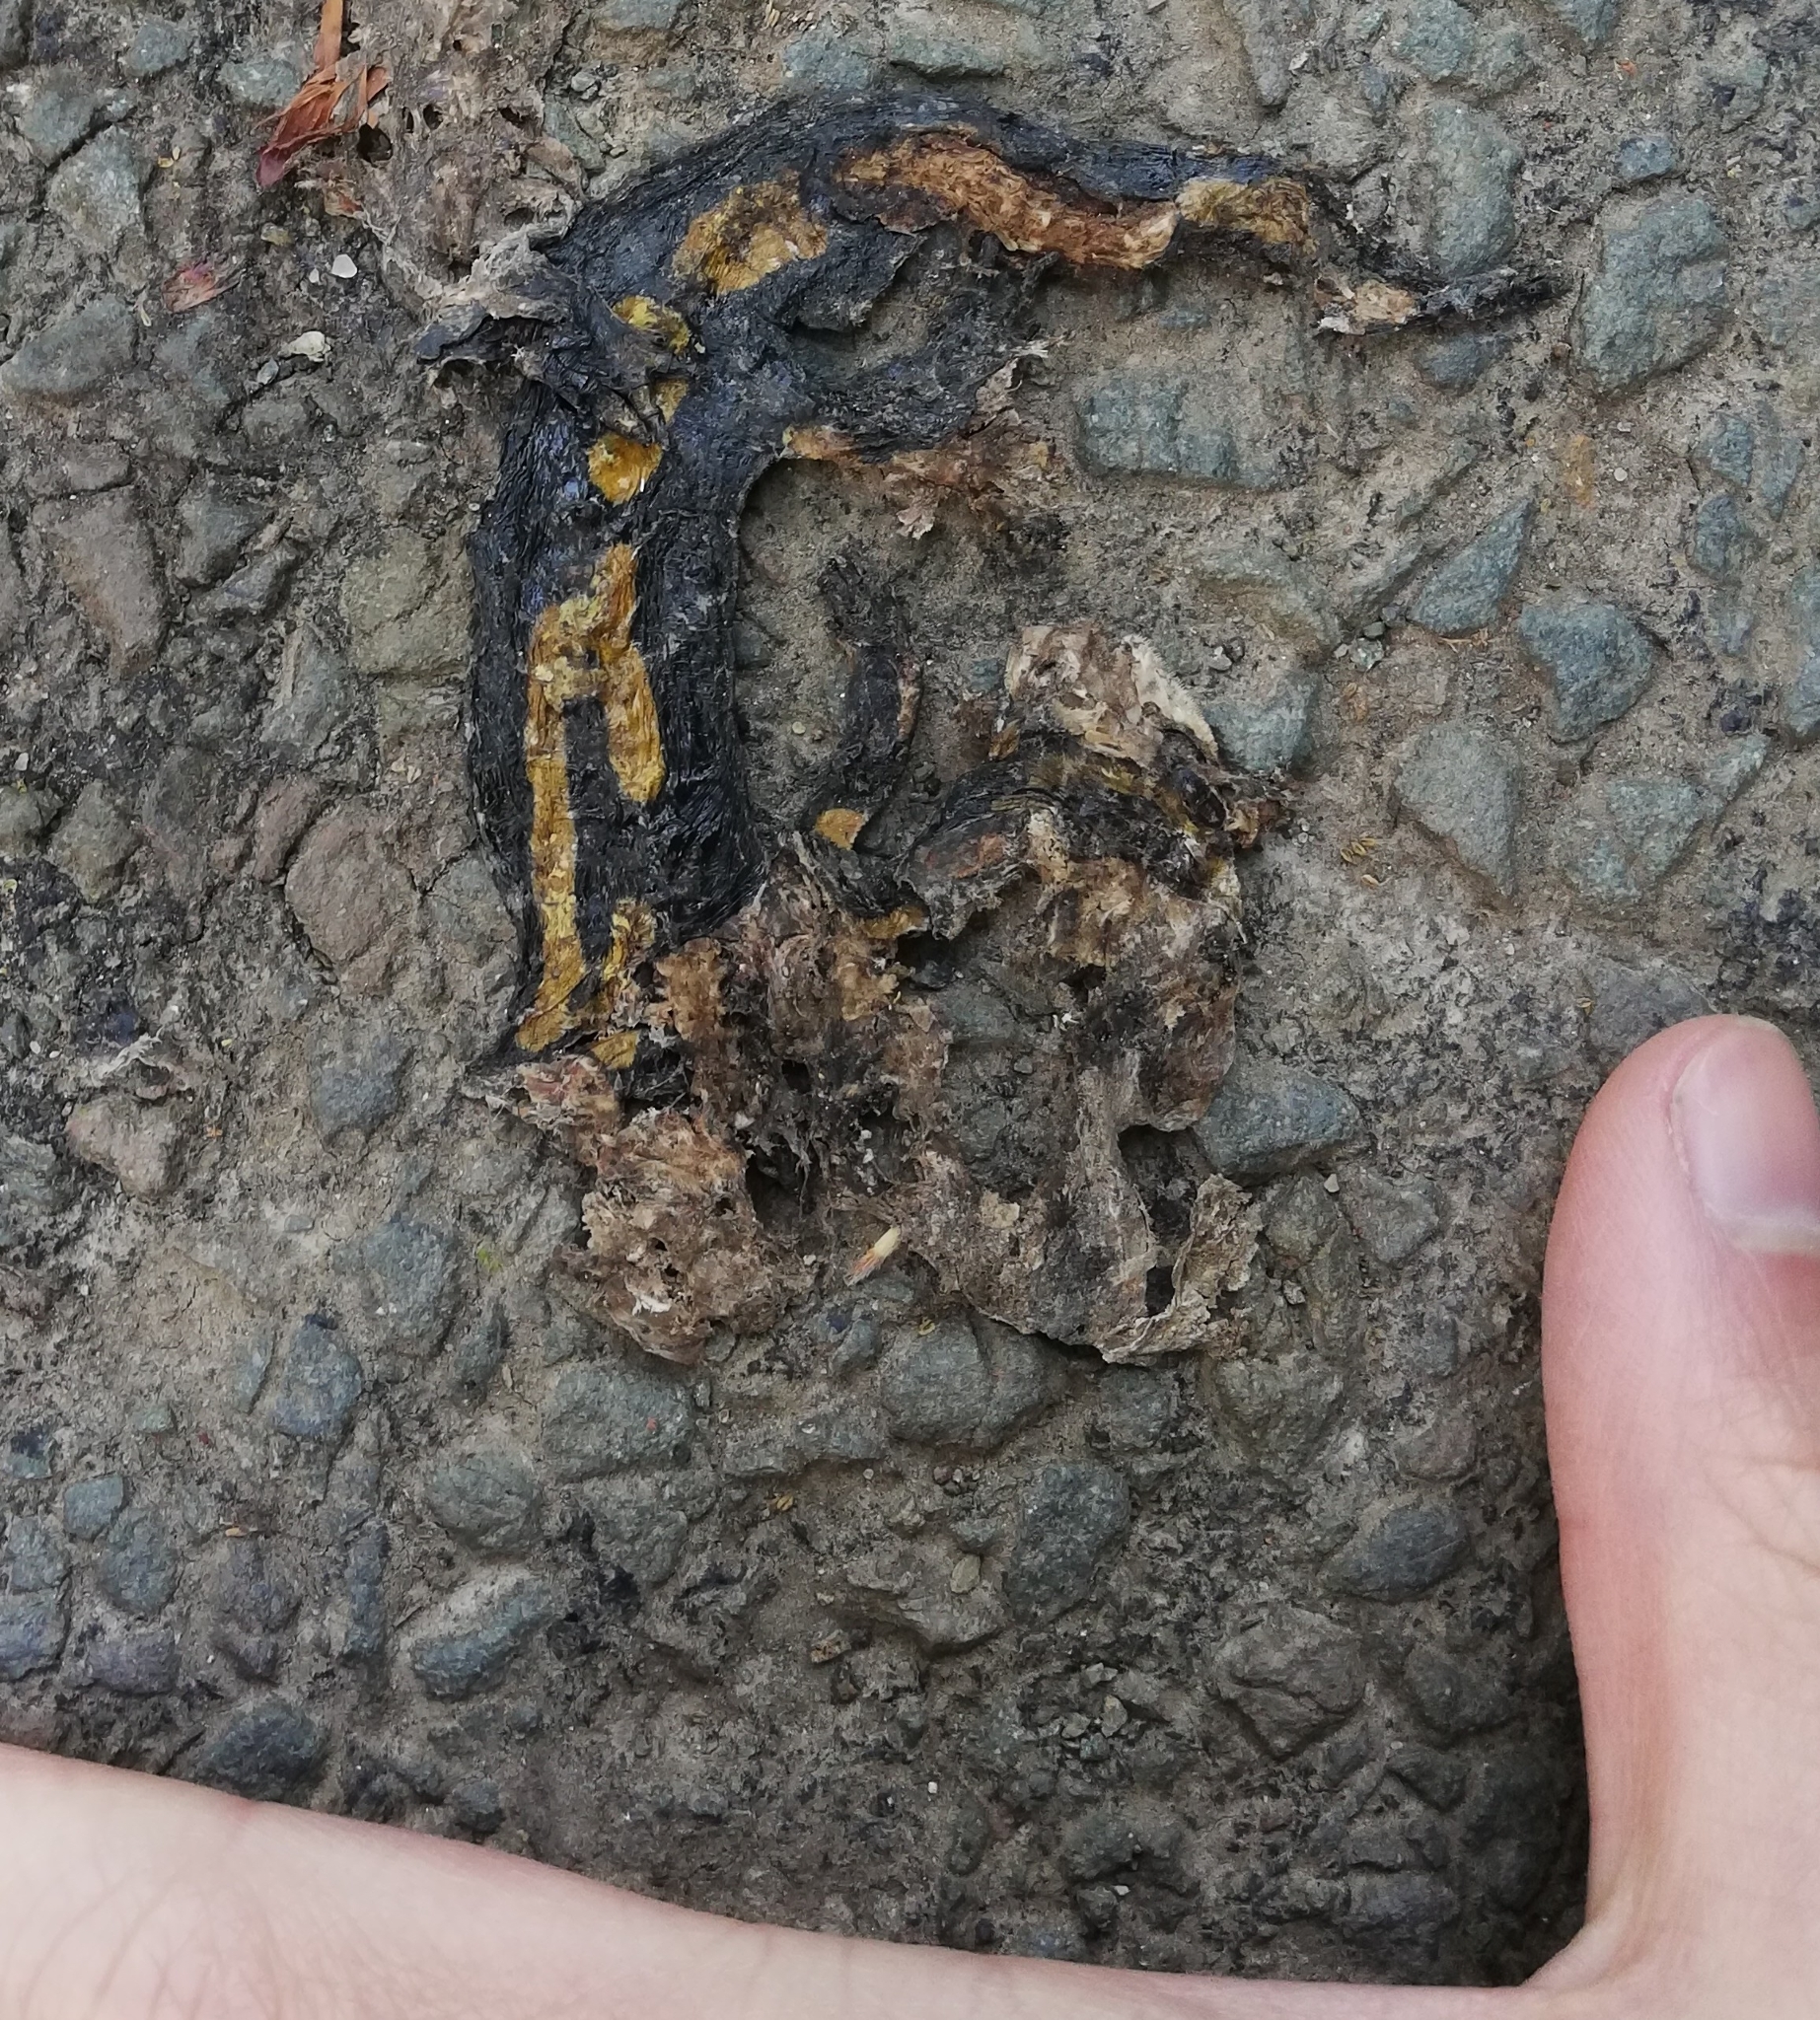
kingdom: Animalia
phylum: Chordata
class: Amphibia
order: Caudata
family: Salamandridae
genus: Salamandra
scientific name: Salamandra salamandra
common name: Fire salamander
